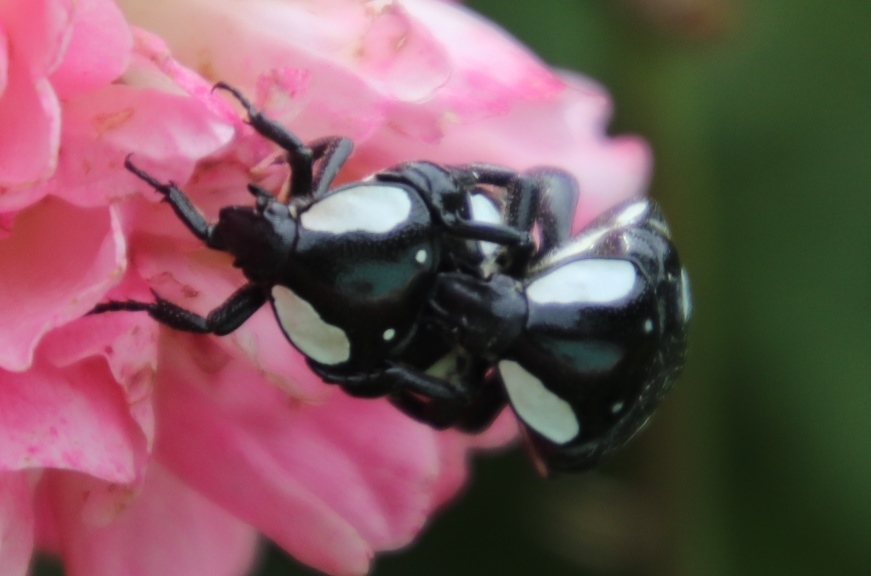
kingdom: Animalia
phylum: Arthropoda
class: Insecta
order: Coleoptera
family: Scarabaeidae
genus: Mausoleopsis
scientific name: Mausoleopsis amabilis
